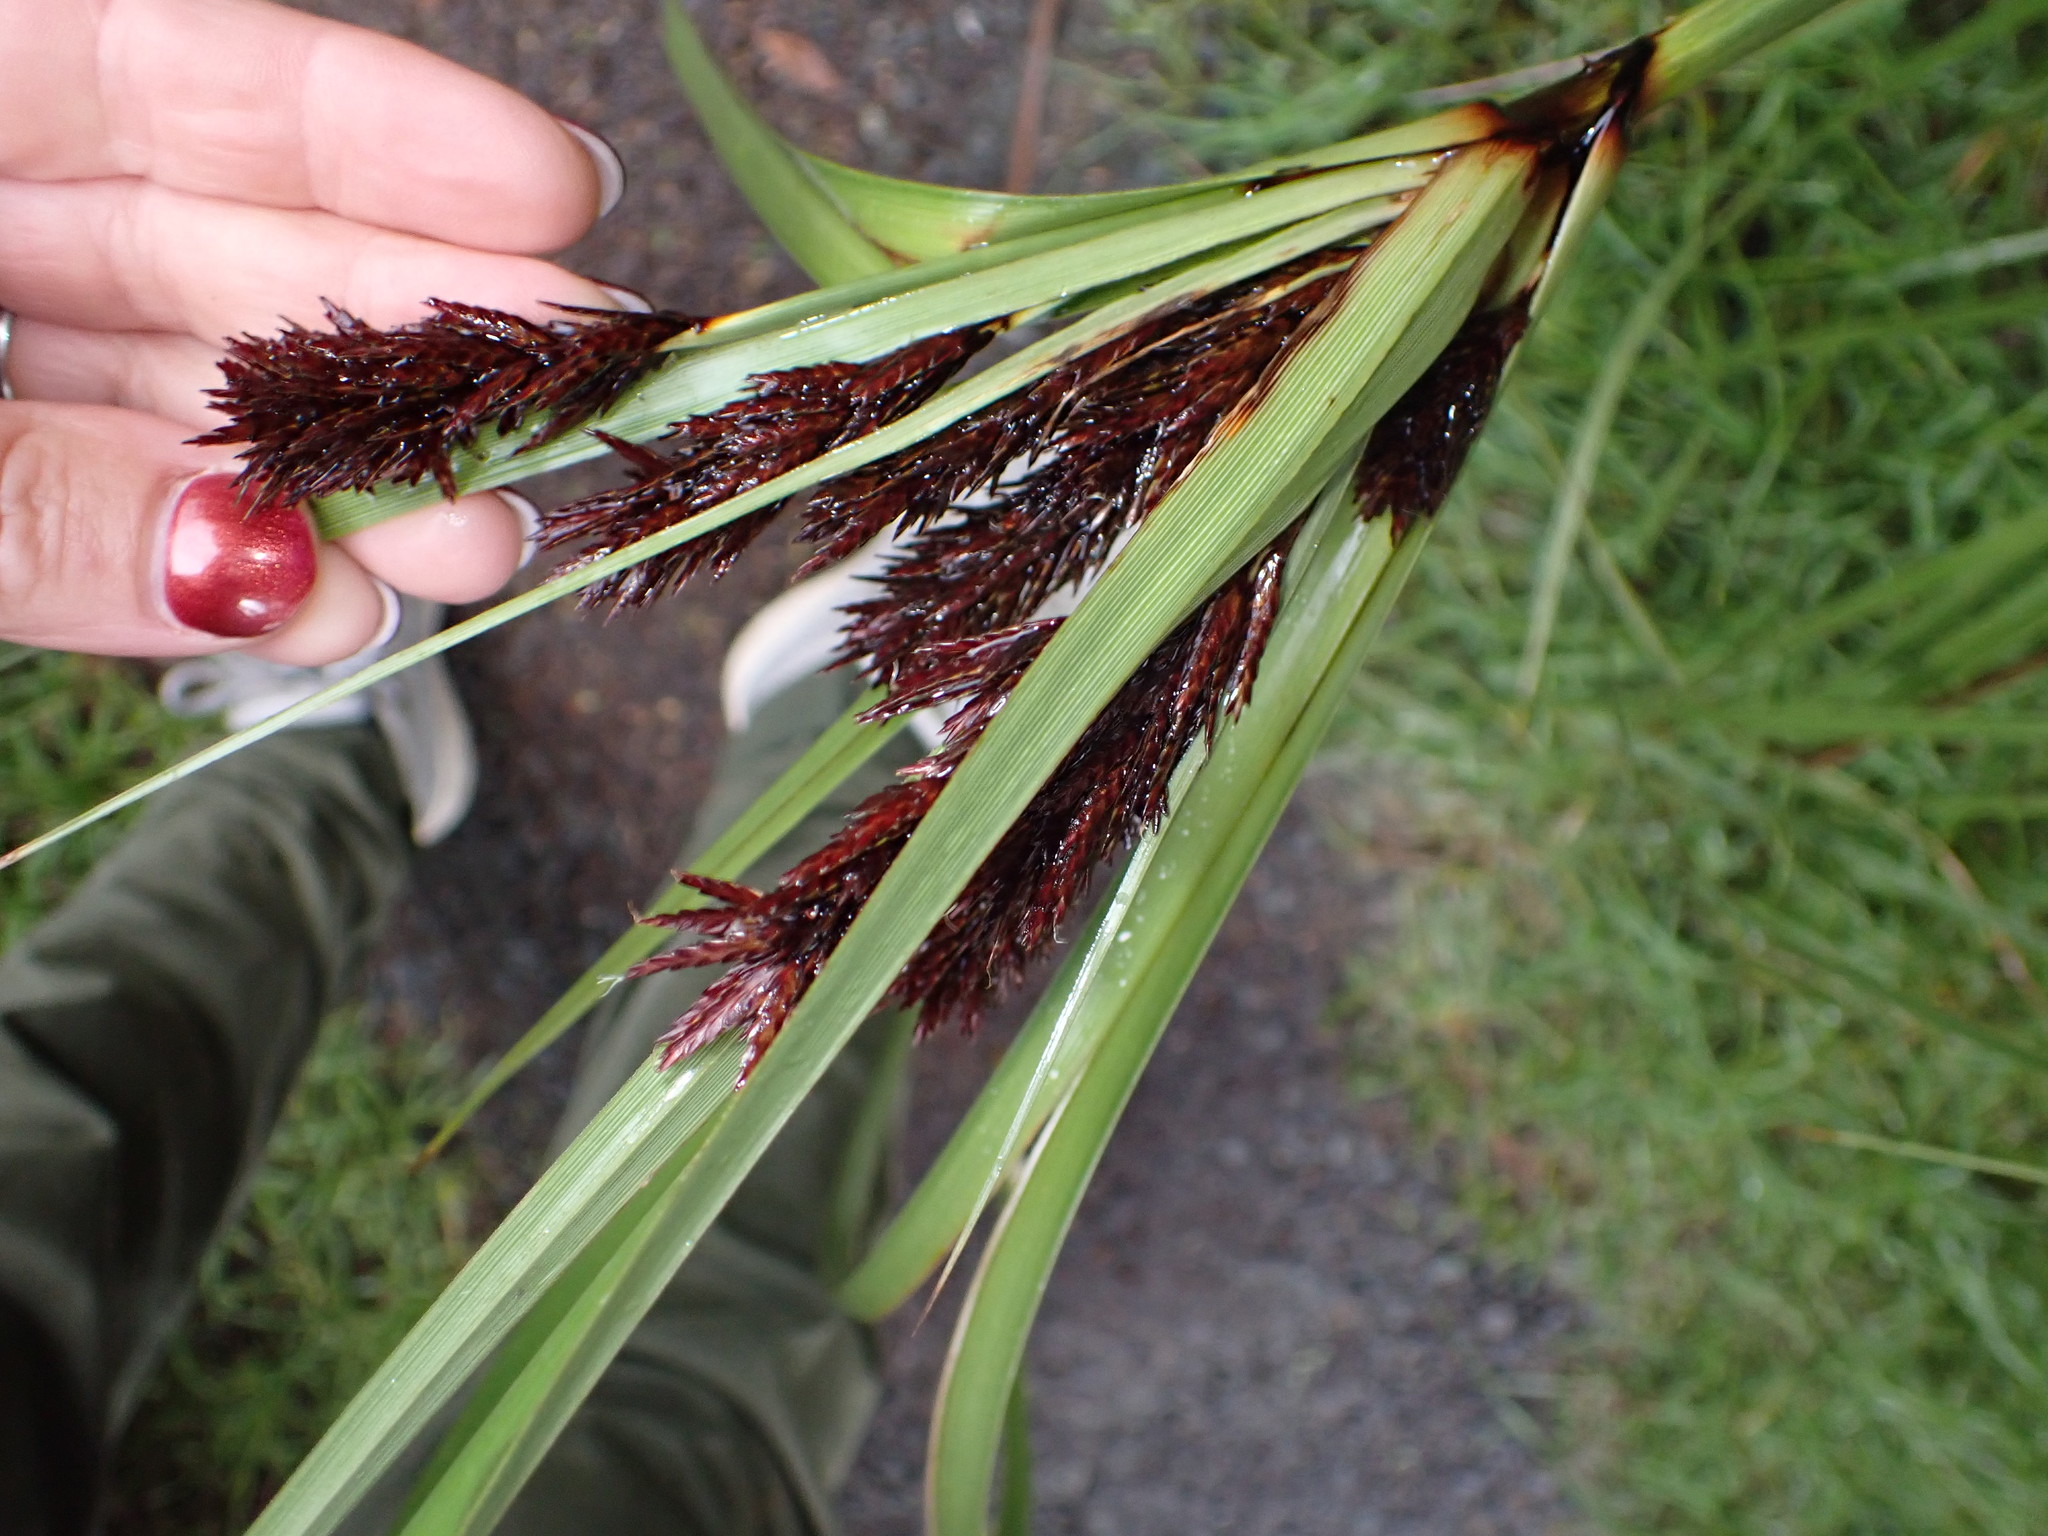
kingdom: Plantae
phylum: Tracheophyta
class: Liliopsida
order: Poales
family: Cyperaceae
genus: Cyperus
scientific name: Cyperus ustulatus
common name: Giant umbrella-sedge
